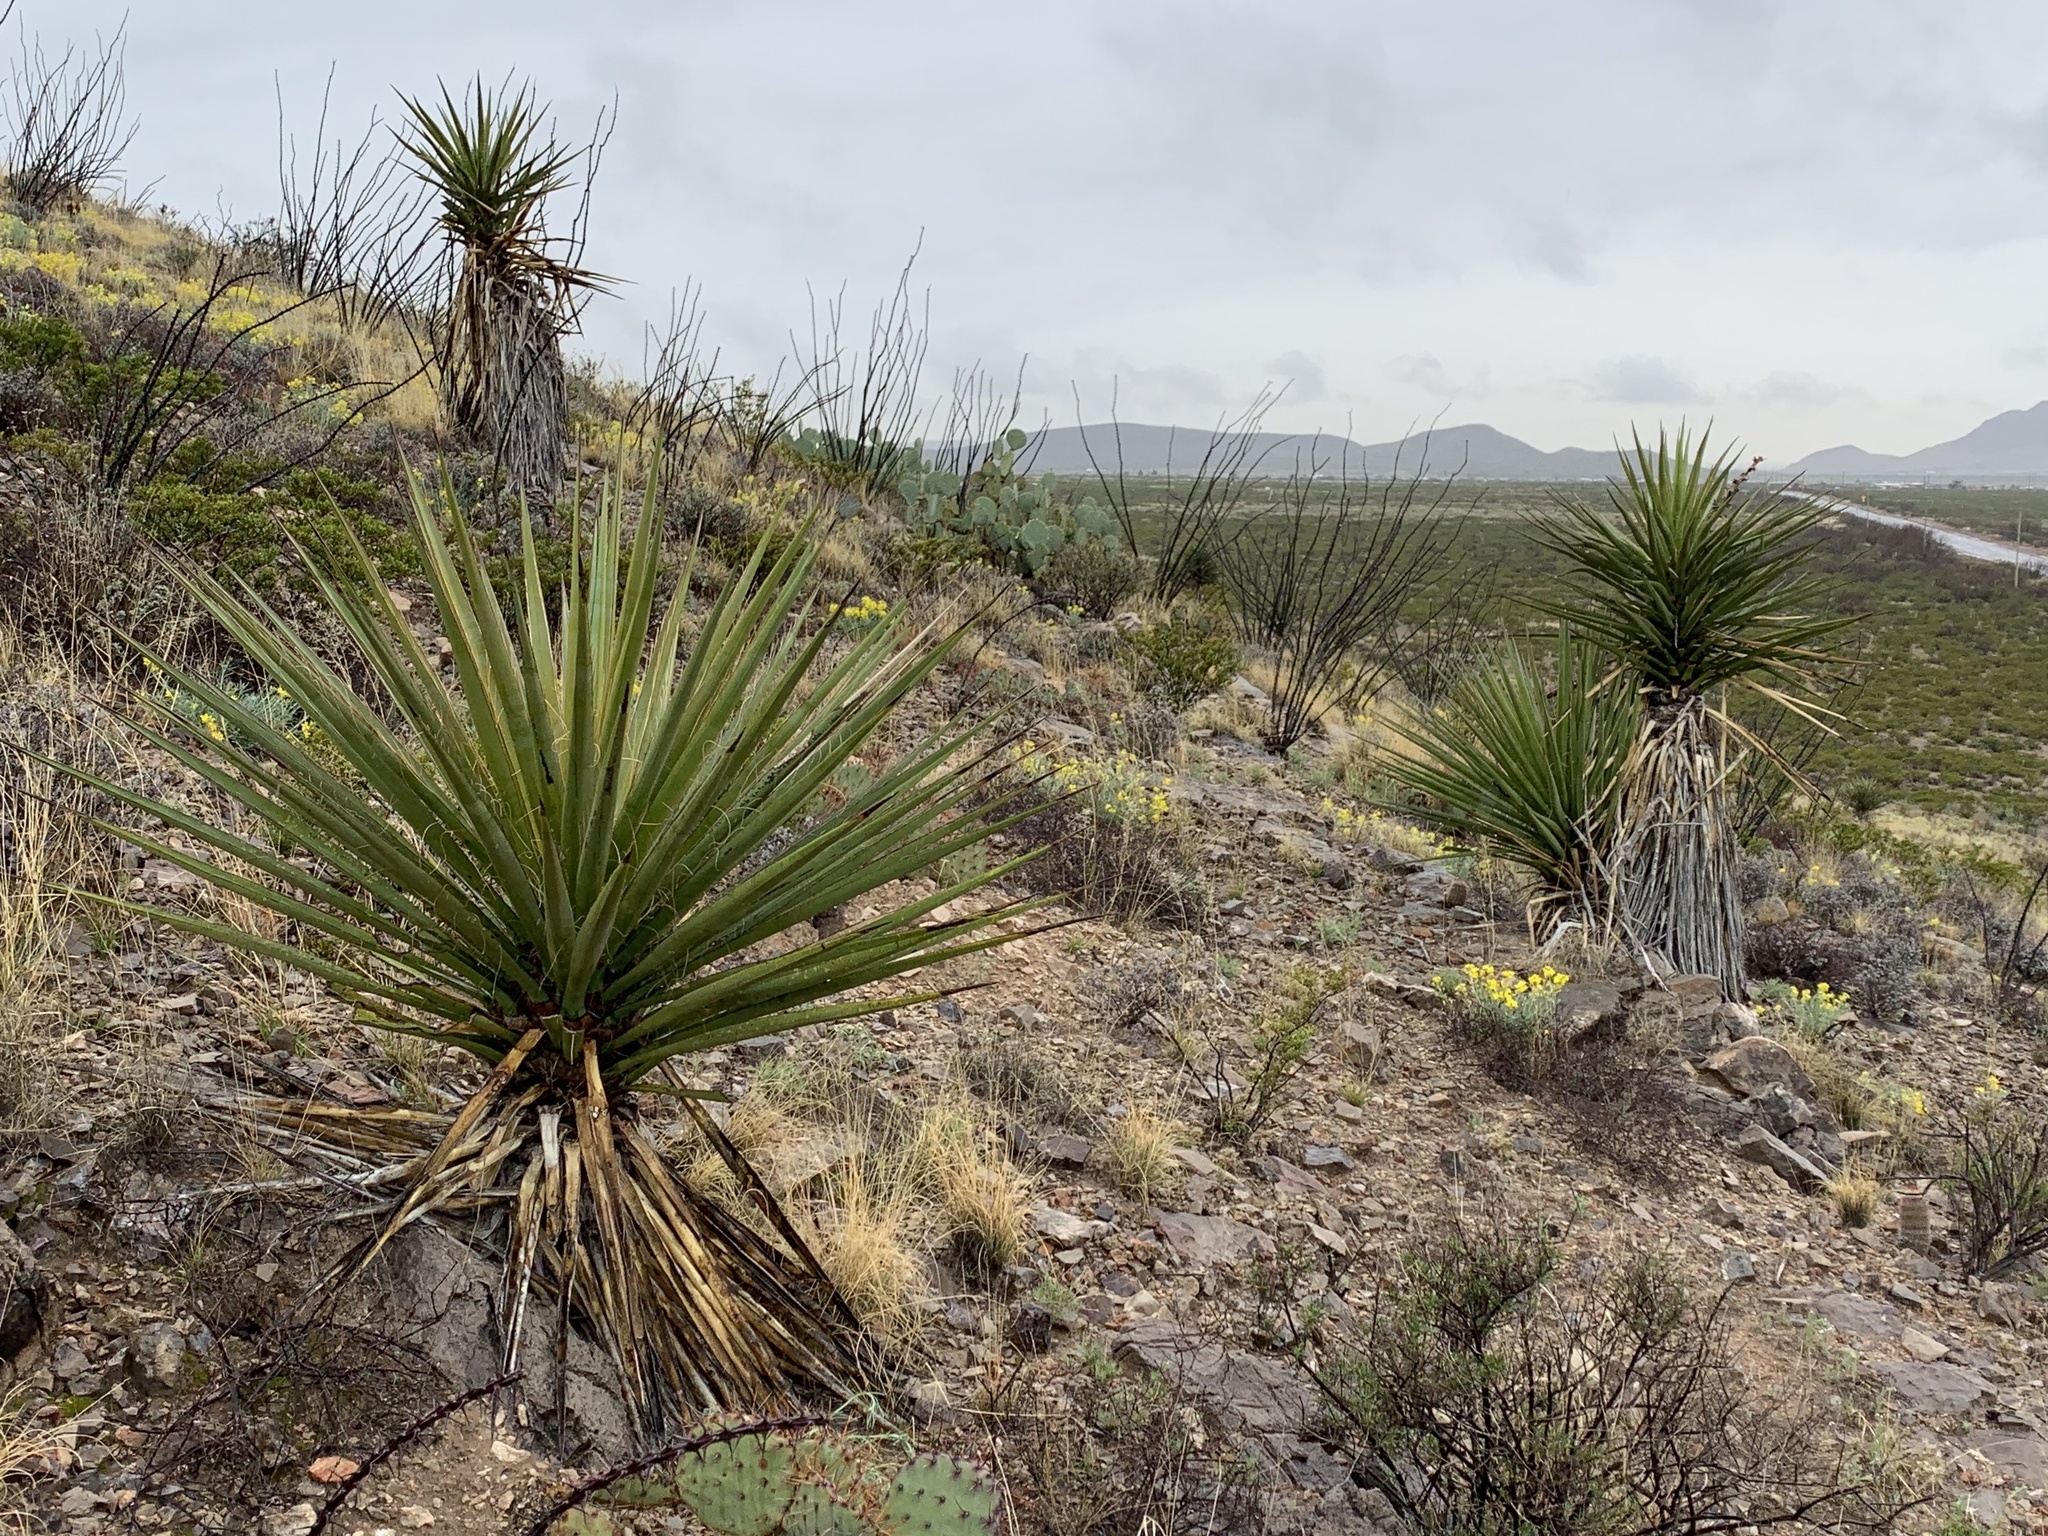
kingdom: Plantae
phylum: Tracheophyta
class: Liliopsida
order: Asparagales
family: Asparagaceae
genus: Yucca
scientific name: Yucca treculiana
